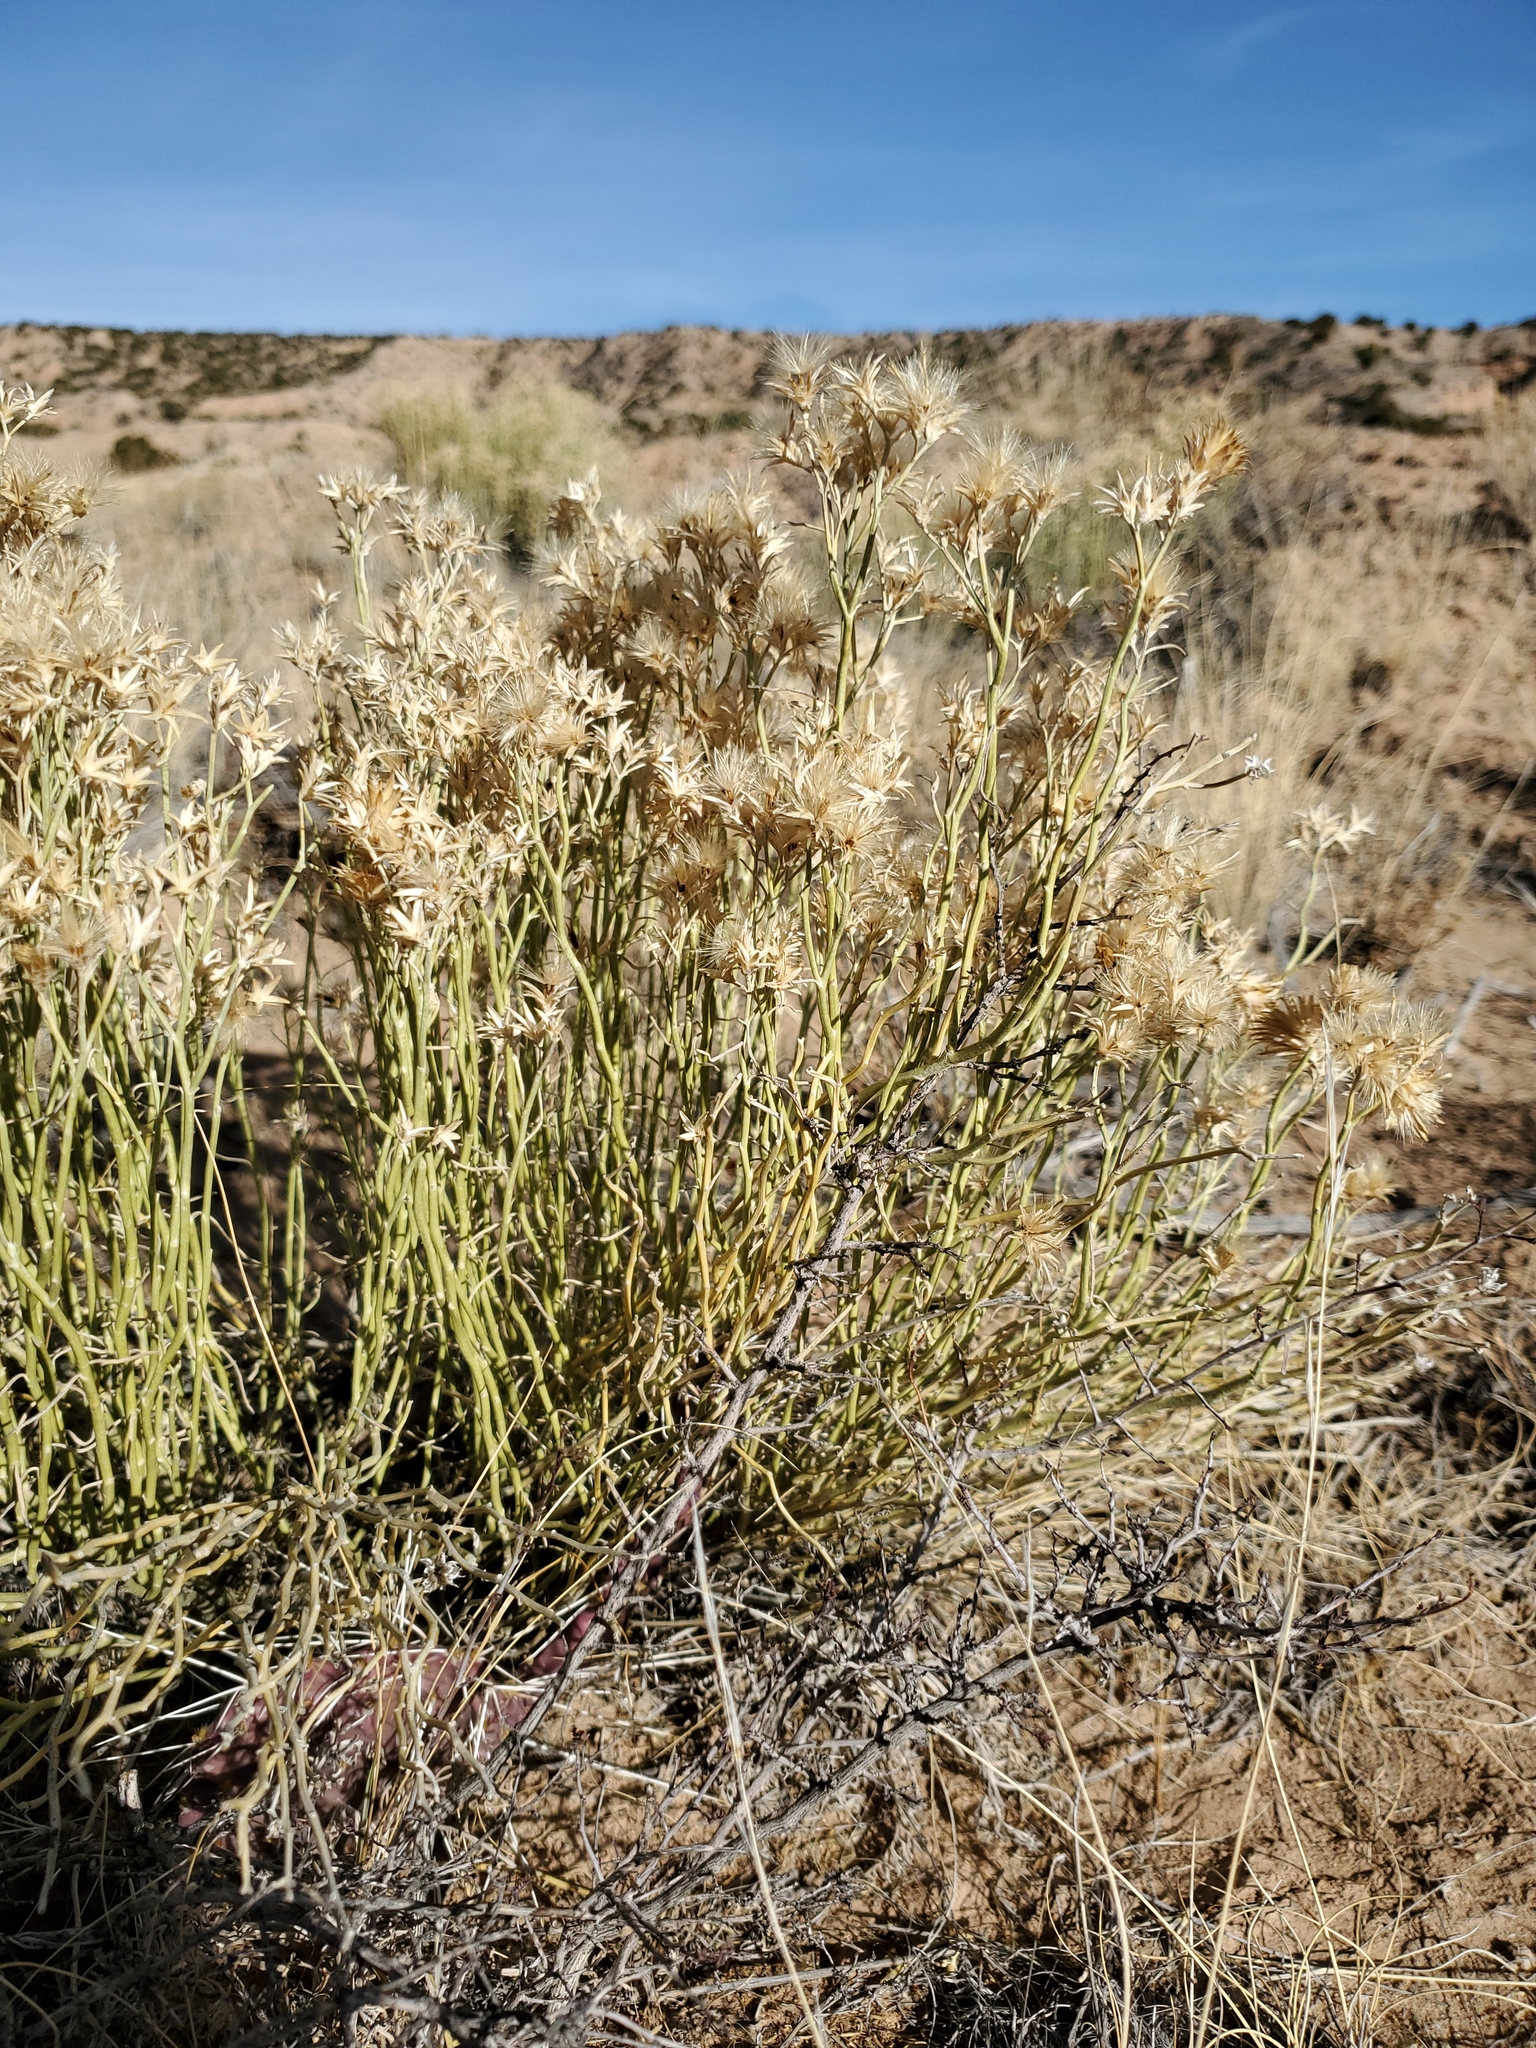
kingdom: Plantae
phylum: Tracheophyta
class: Magnoliopsida
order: Asterales
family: Asteraceae
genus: Ericameria
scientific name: Ericameria nauseosa
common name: Rubber rabbitbrush
